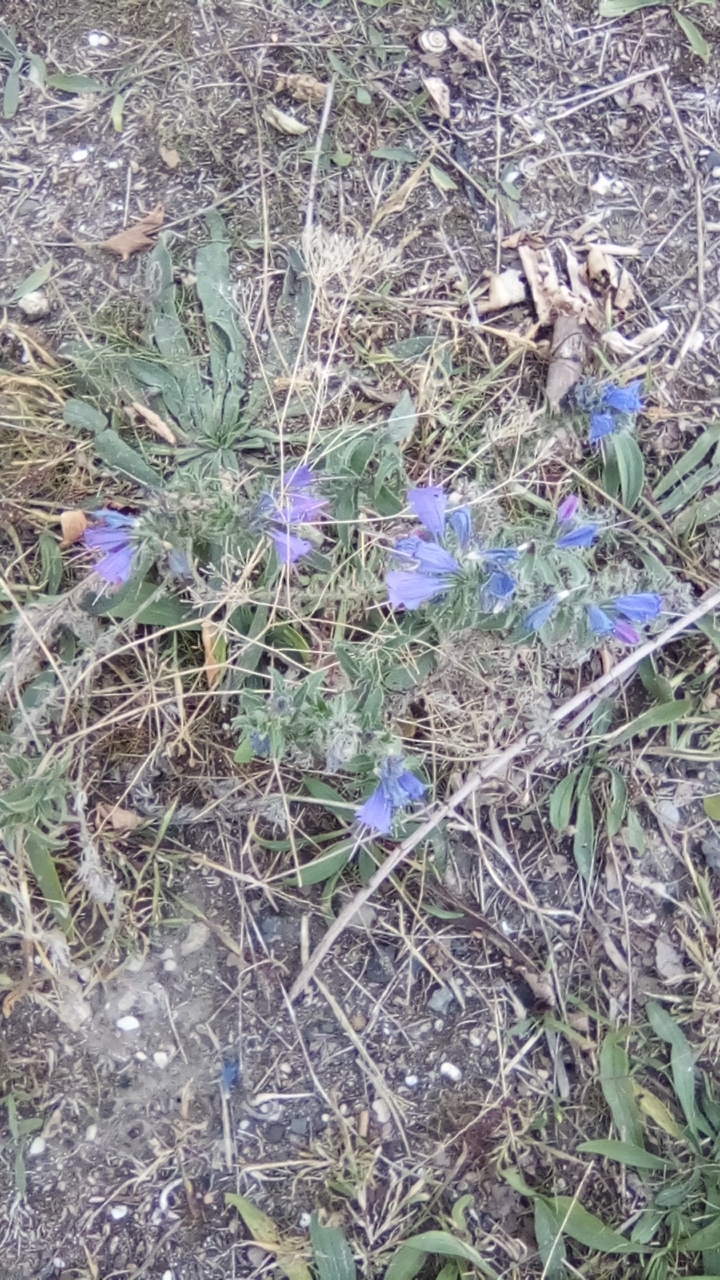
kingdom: Plantae
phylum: Tracheophyta
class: Magnoliopsida
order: Boraginales
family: Boraginaceae
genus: Echium
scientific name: Echium vulgare
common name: Common viper's bugloss
